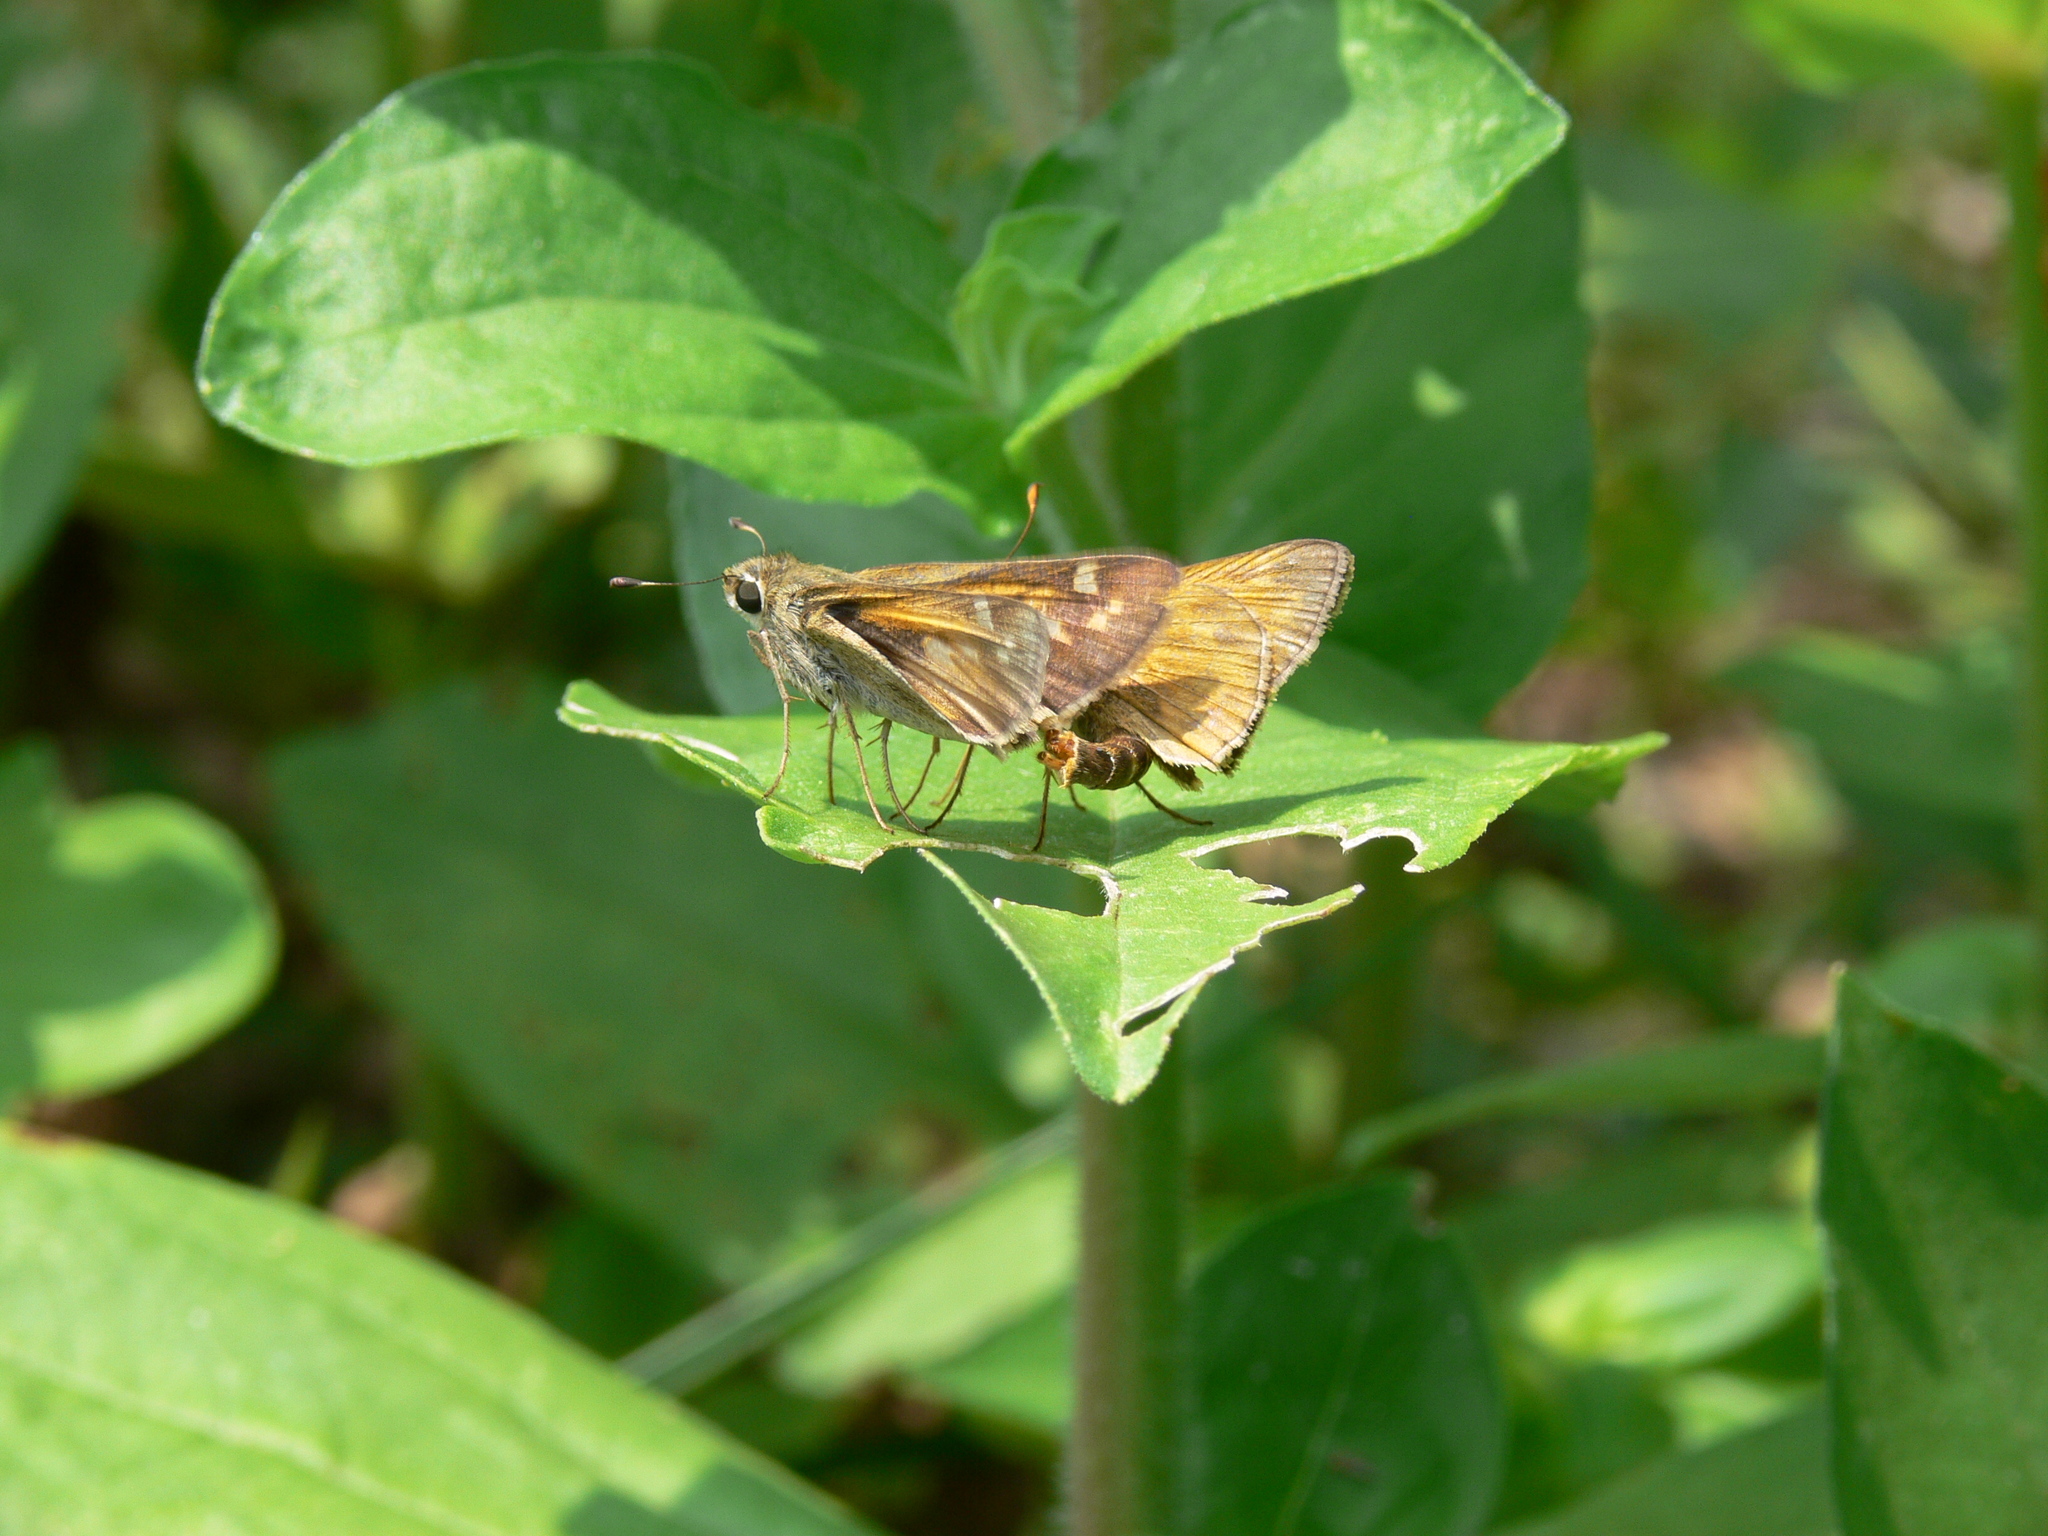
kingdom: Animalia
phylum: Arthropoda
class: Insecta
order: Lepidoptera
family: Hesperiidae
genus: Atalopedes
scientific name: Atalopedes
